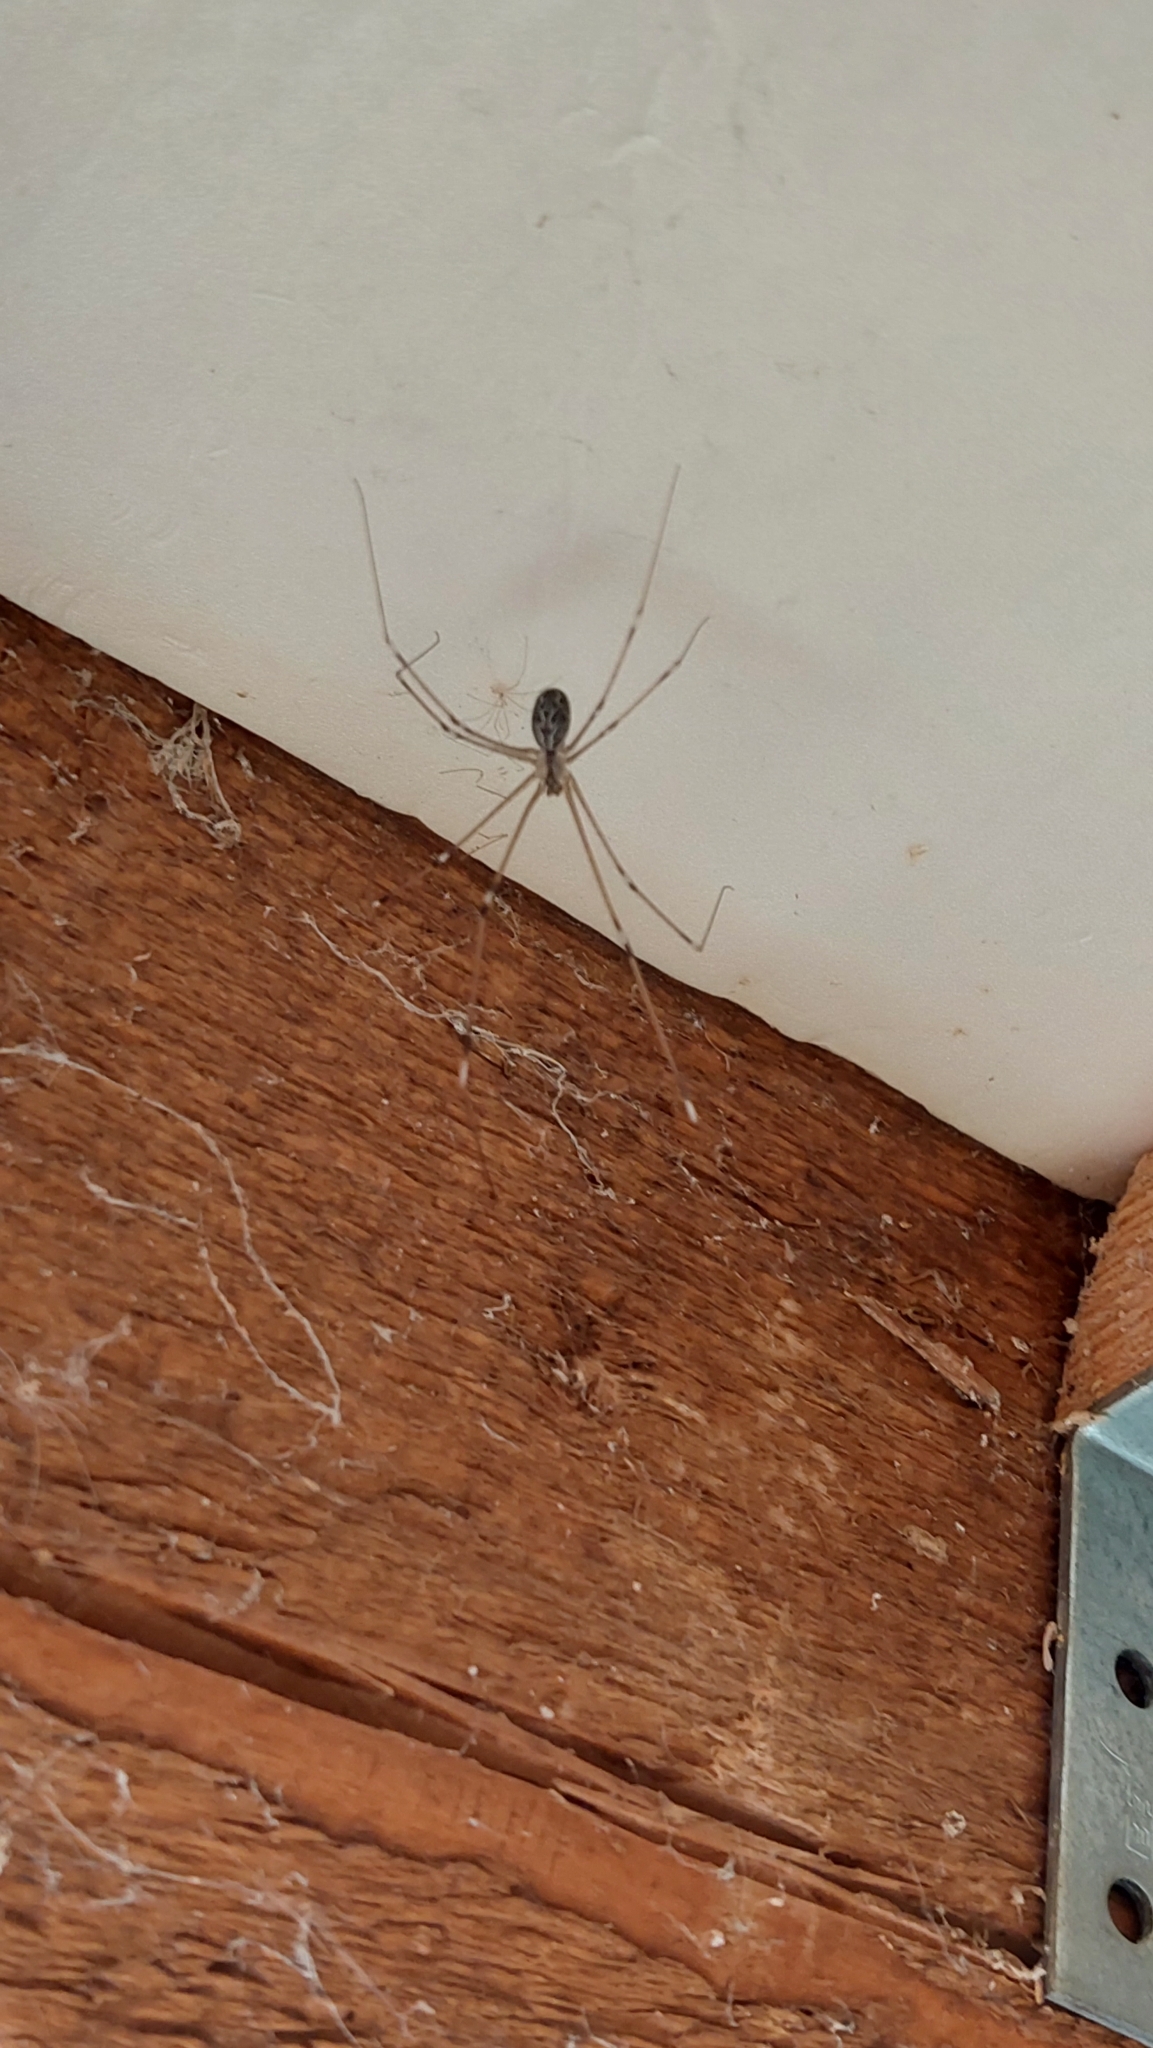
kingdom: Animalia
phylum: Arthropoda
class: Arachnida
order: Araneae
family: Pholcidae
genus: Holocnemus
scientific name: Holocnemus pluchei
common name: Marbled cellar spider
